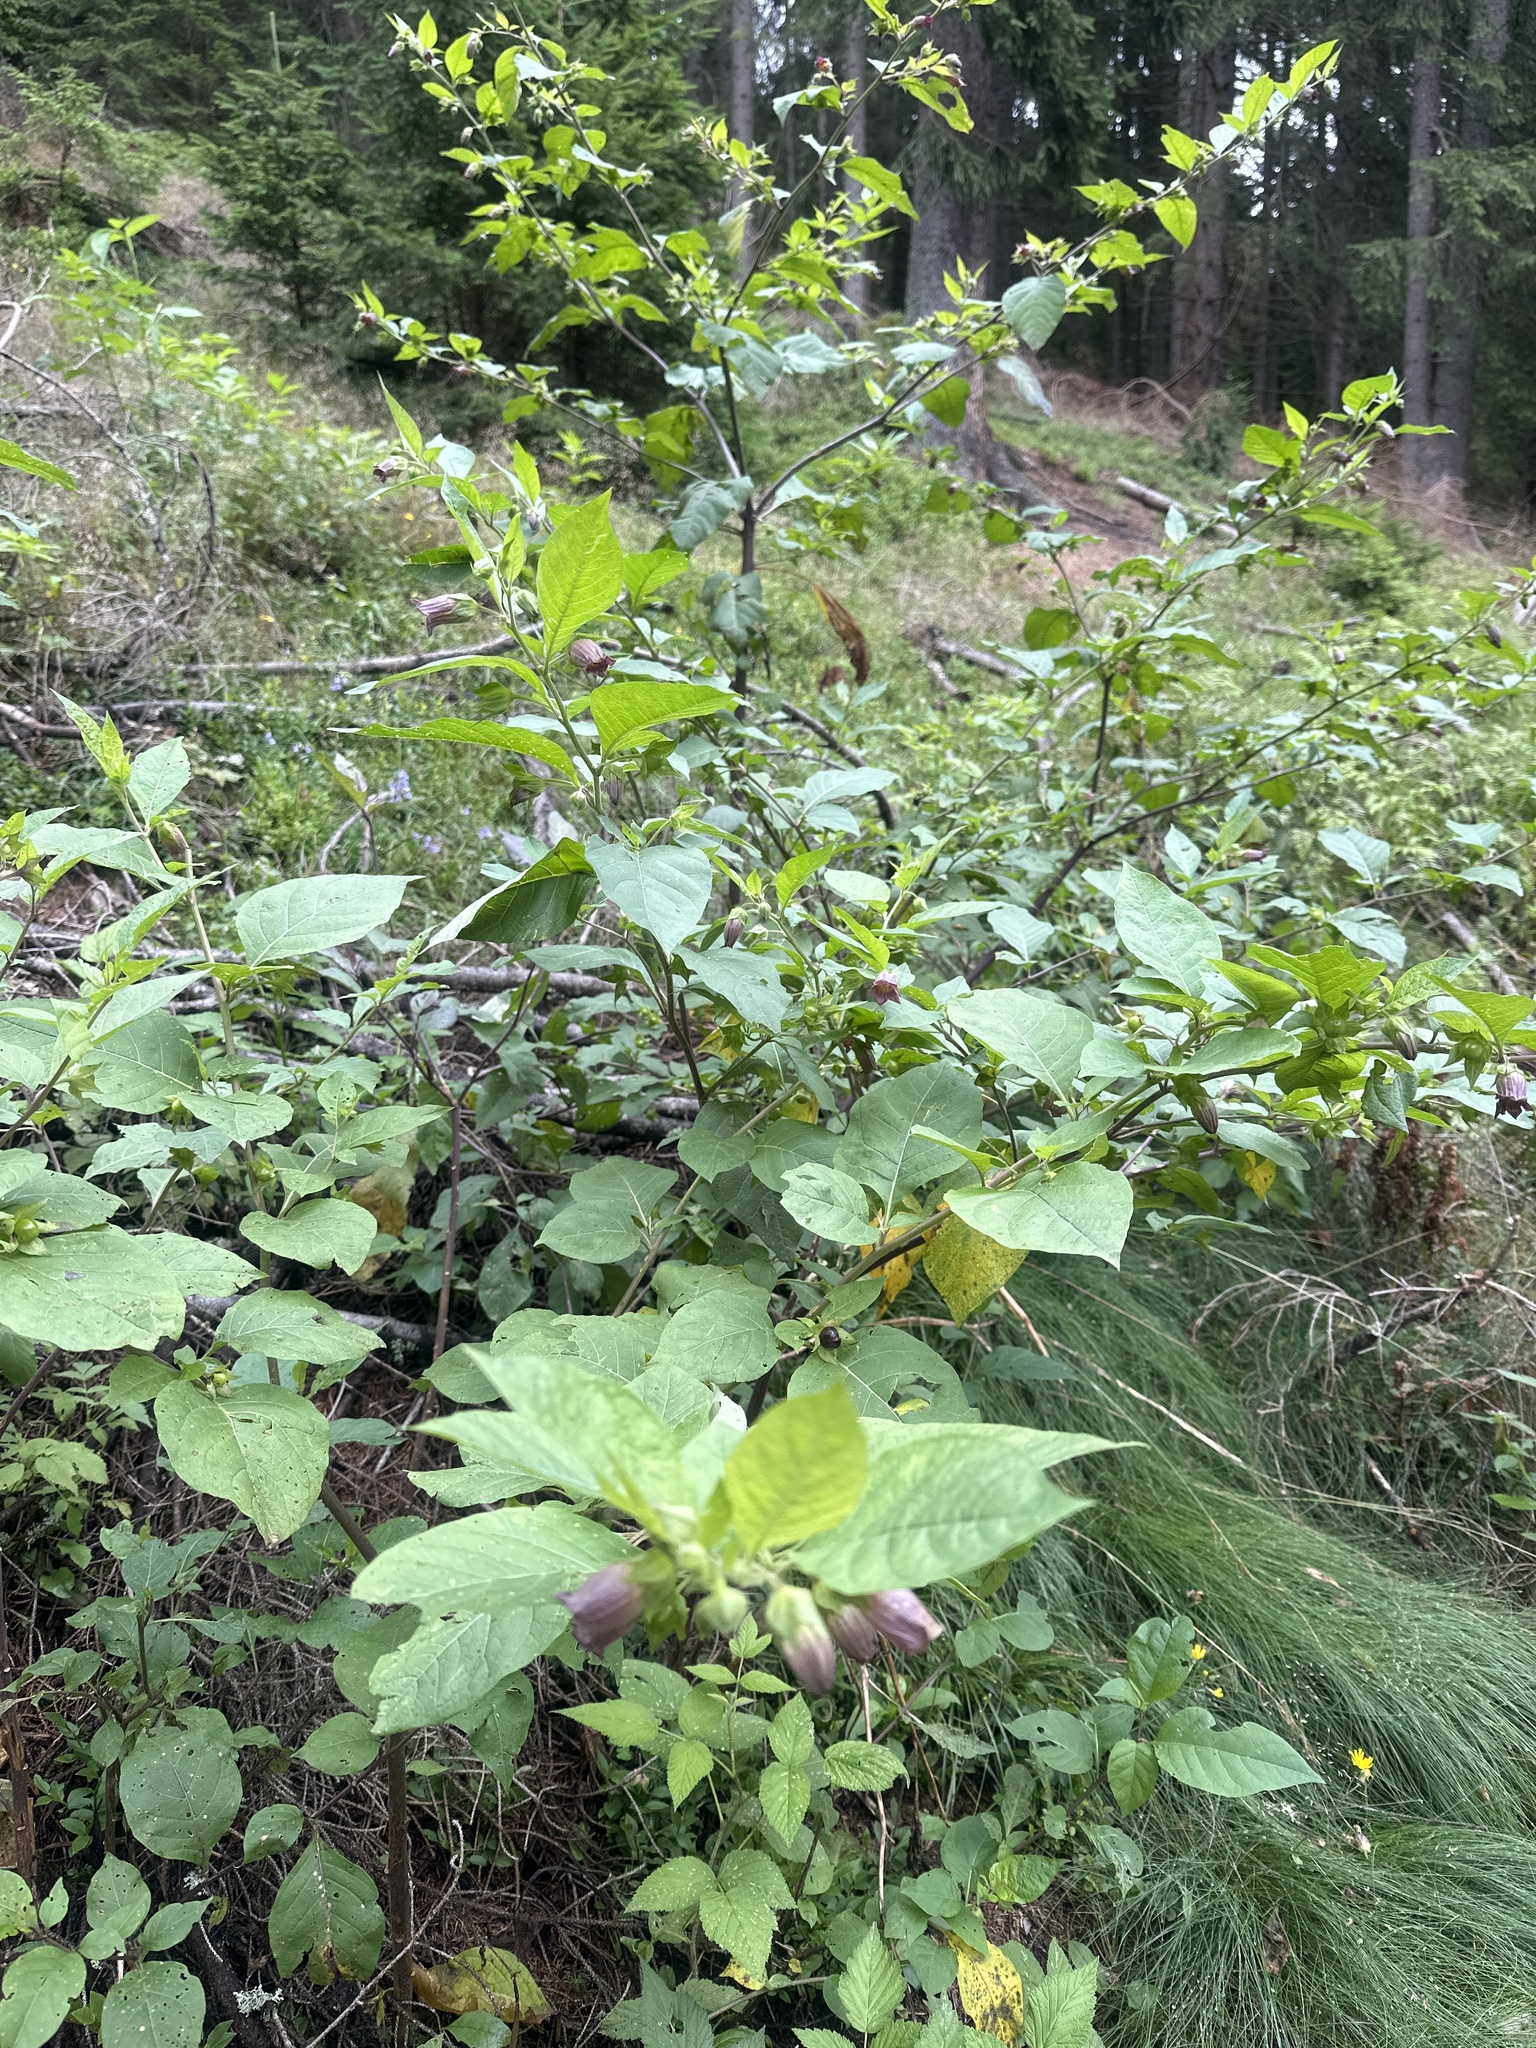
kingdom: Plantae
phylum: Tracheophyta
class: Magnoliopsida
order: Solanales
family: Solanaceae
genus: Atropa
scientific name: Atropa belladonna
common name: Deadly nightshade
